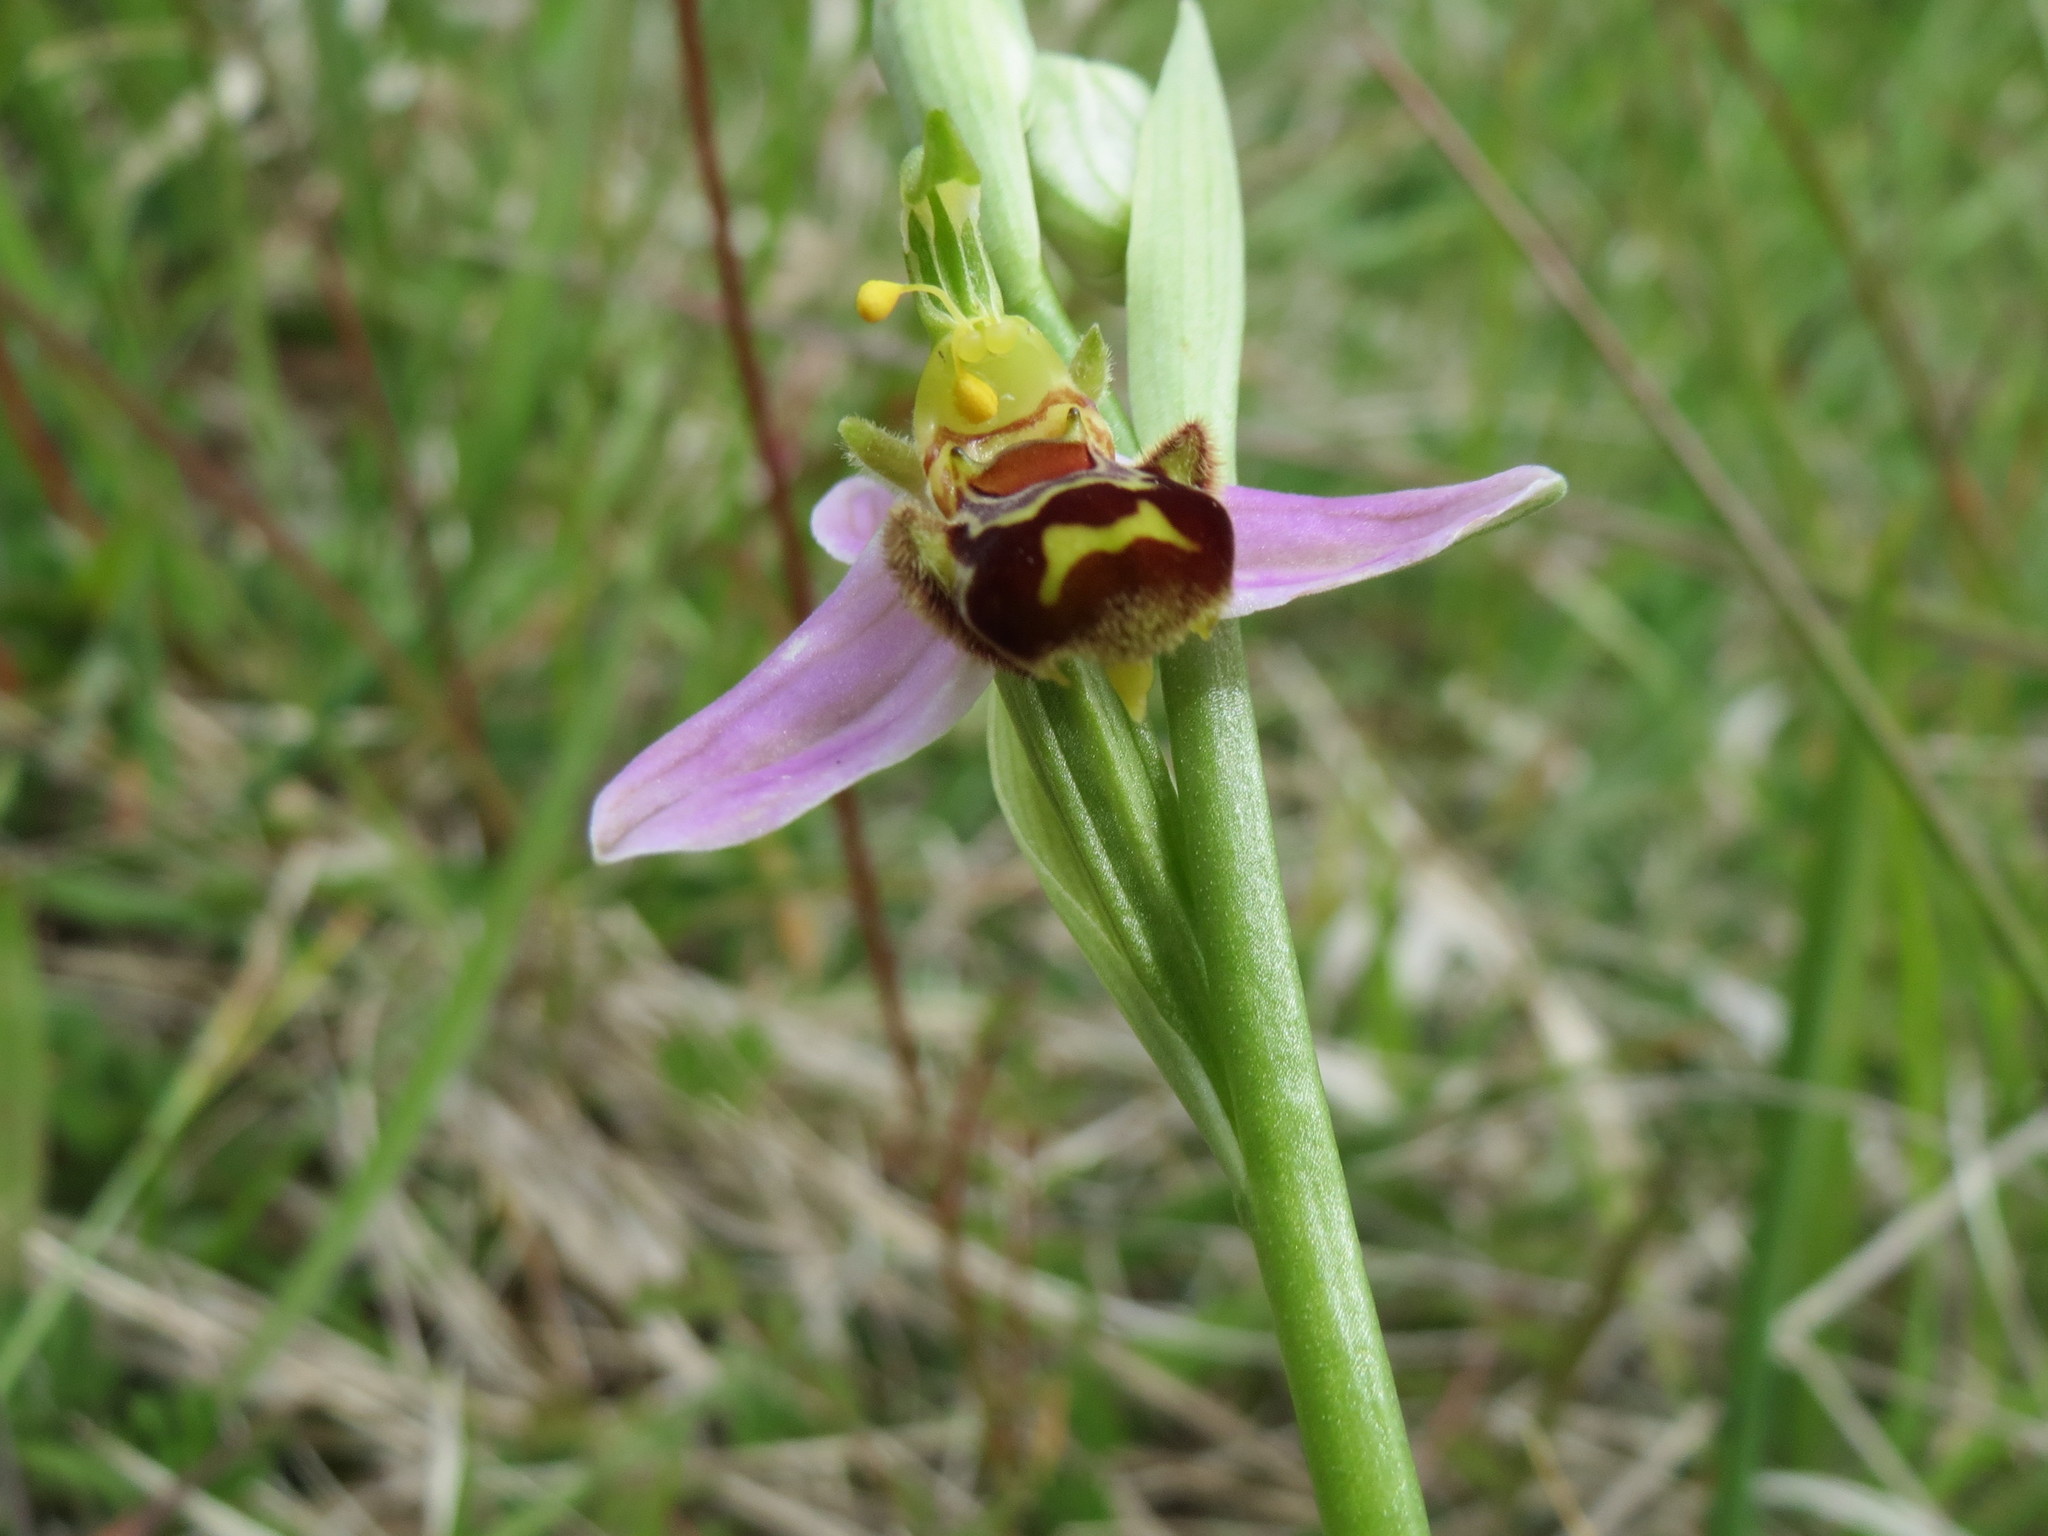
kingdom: Plantae
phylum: Tracheophyta
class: Liliopsida
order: Asparagales
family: Orchidaceae
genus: Ophrys
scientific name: Ophrys apifera
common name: Bee orchid
